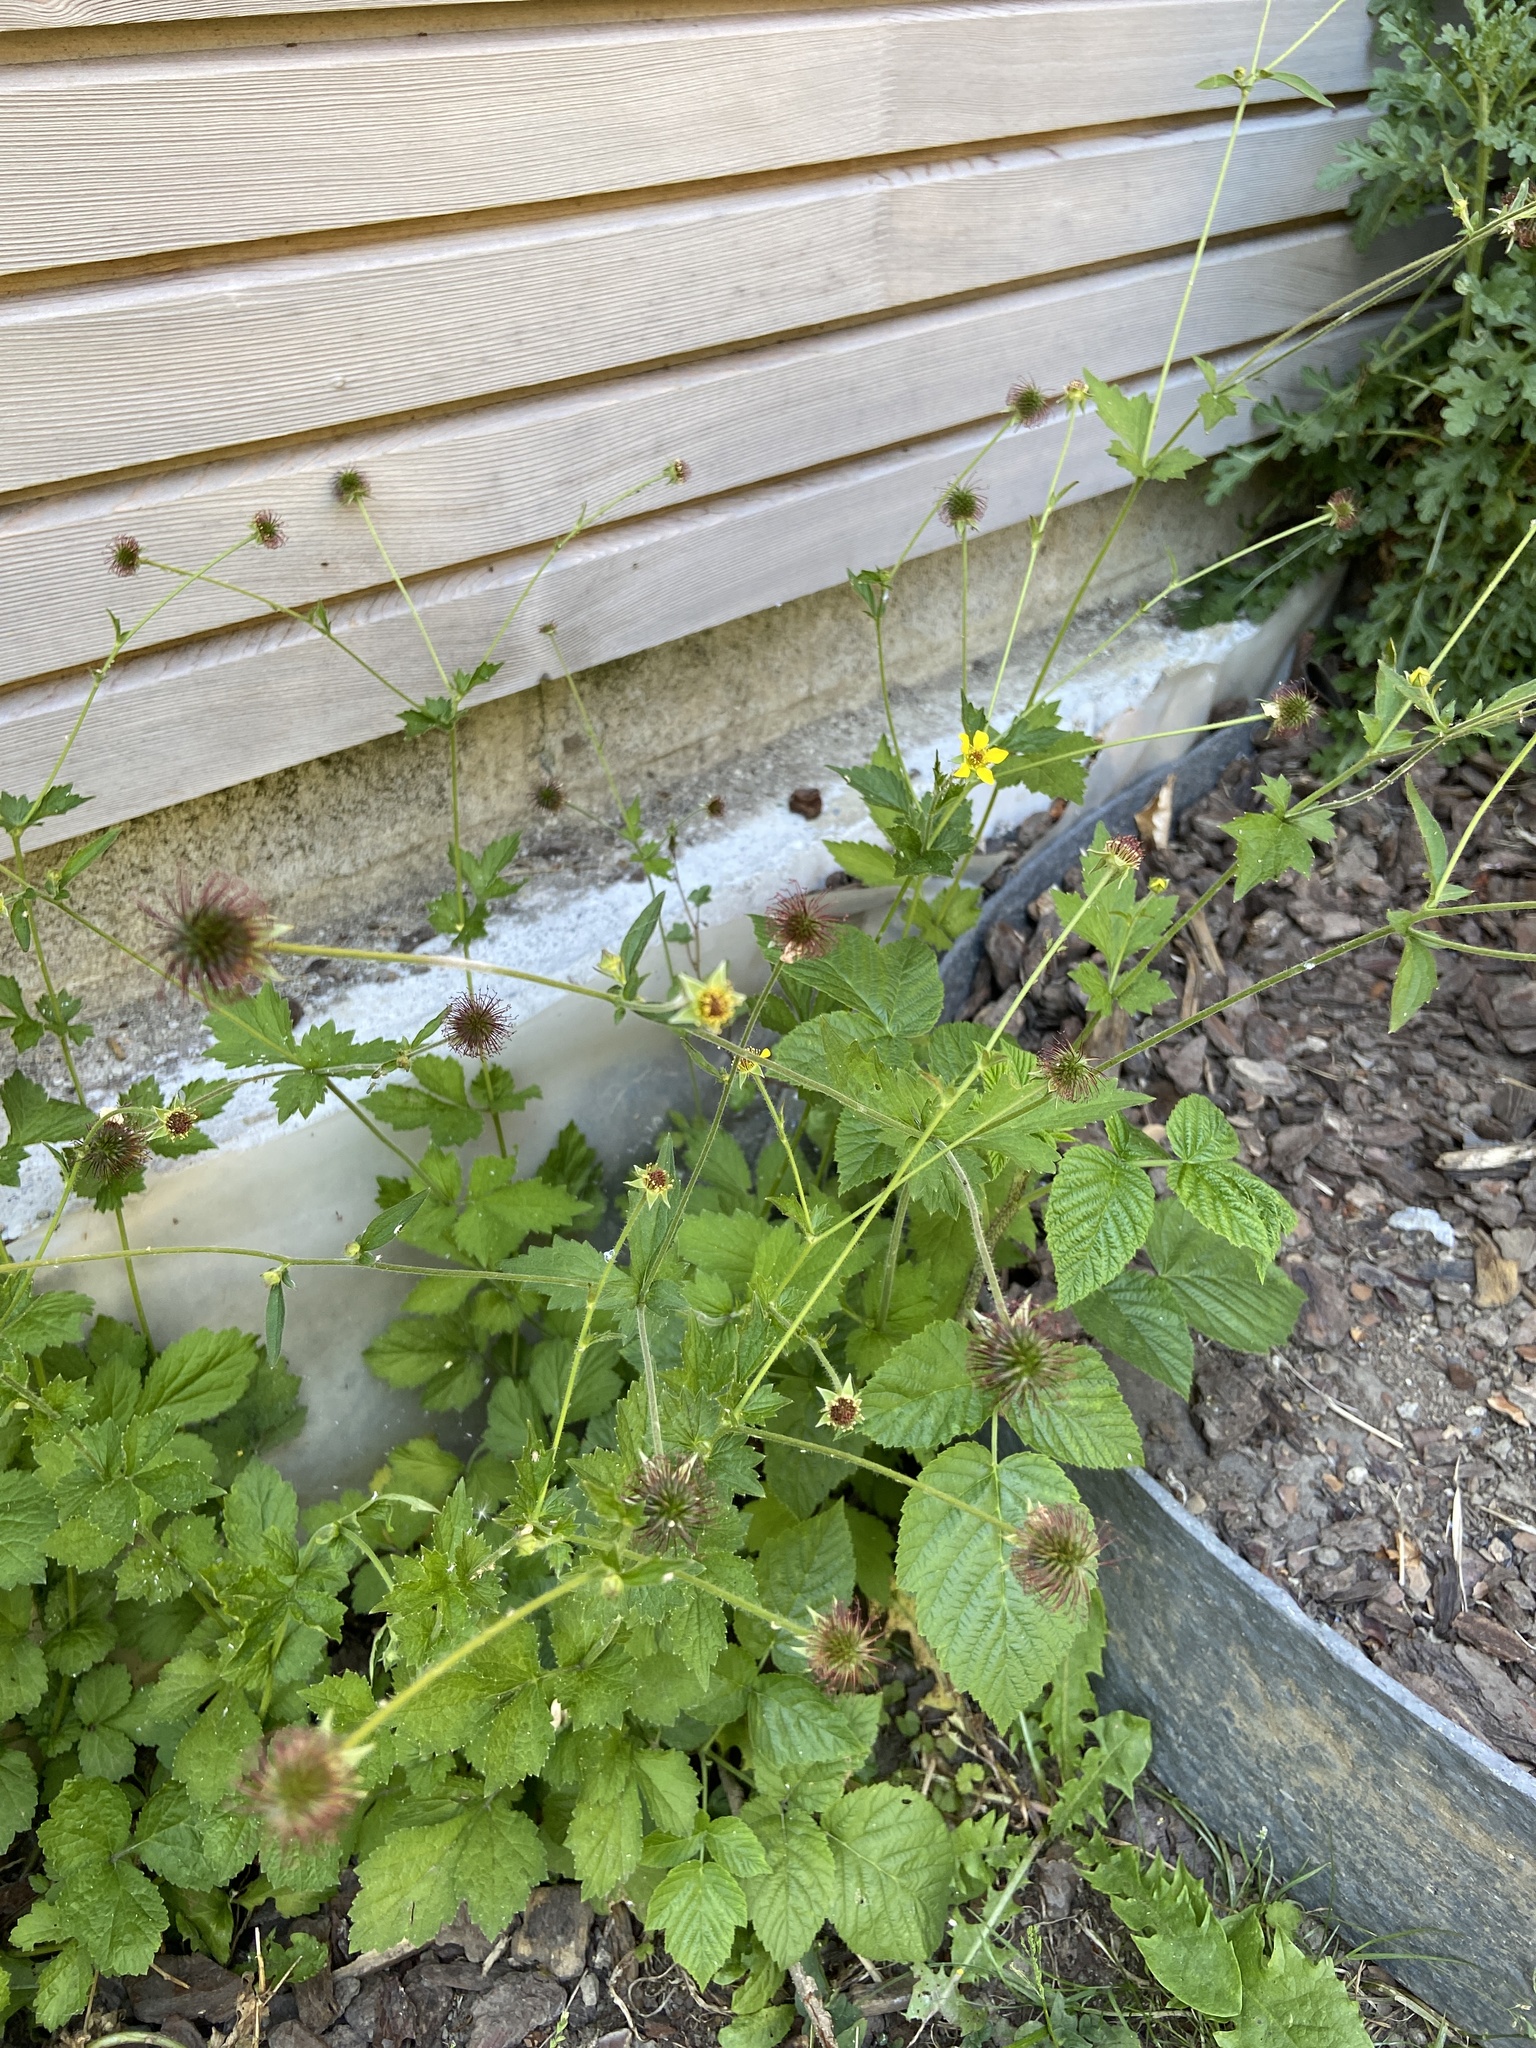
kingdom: Plantae
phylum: Tracheophyta
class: Magnoliopsida
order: Rosales
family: Rosaceae
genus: Geum
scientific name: Geum urbanum
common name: Wood avens
